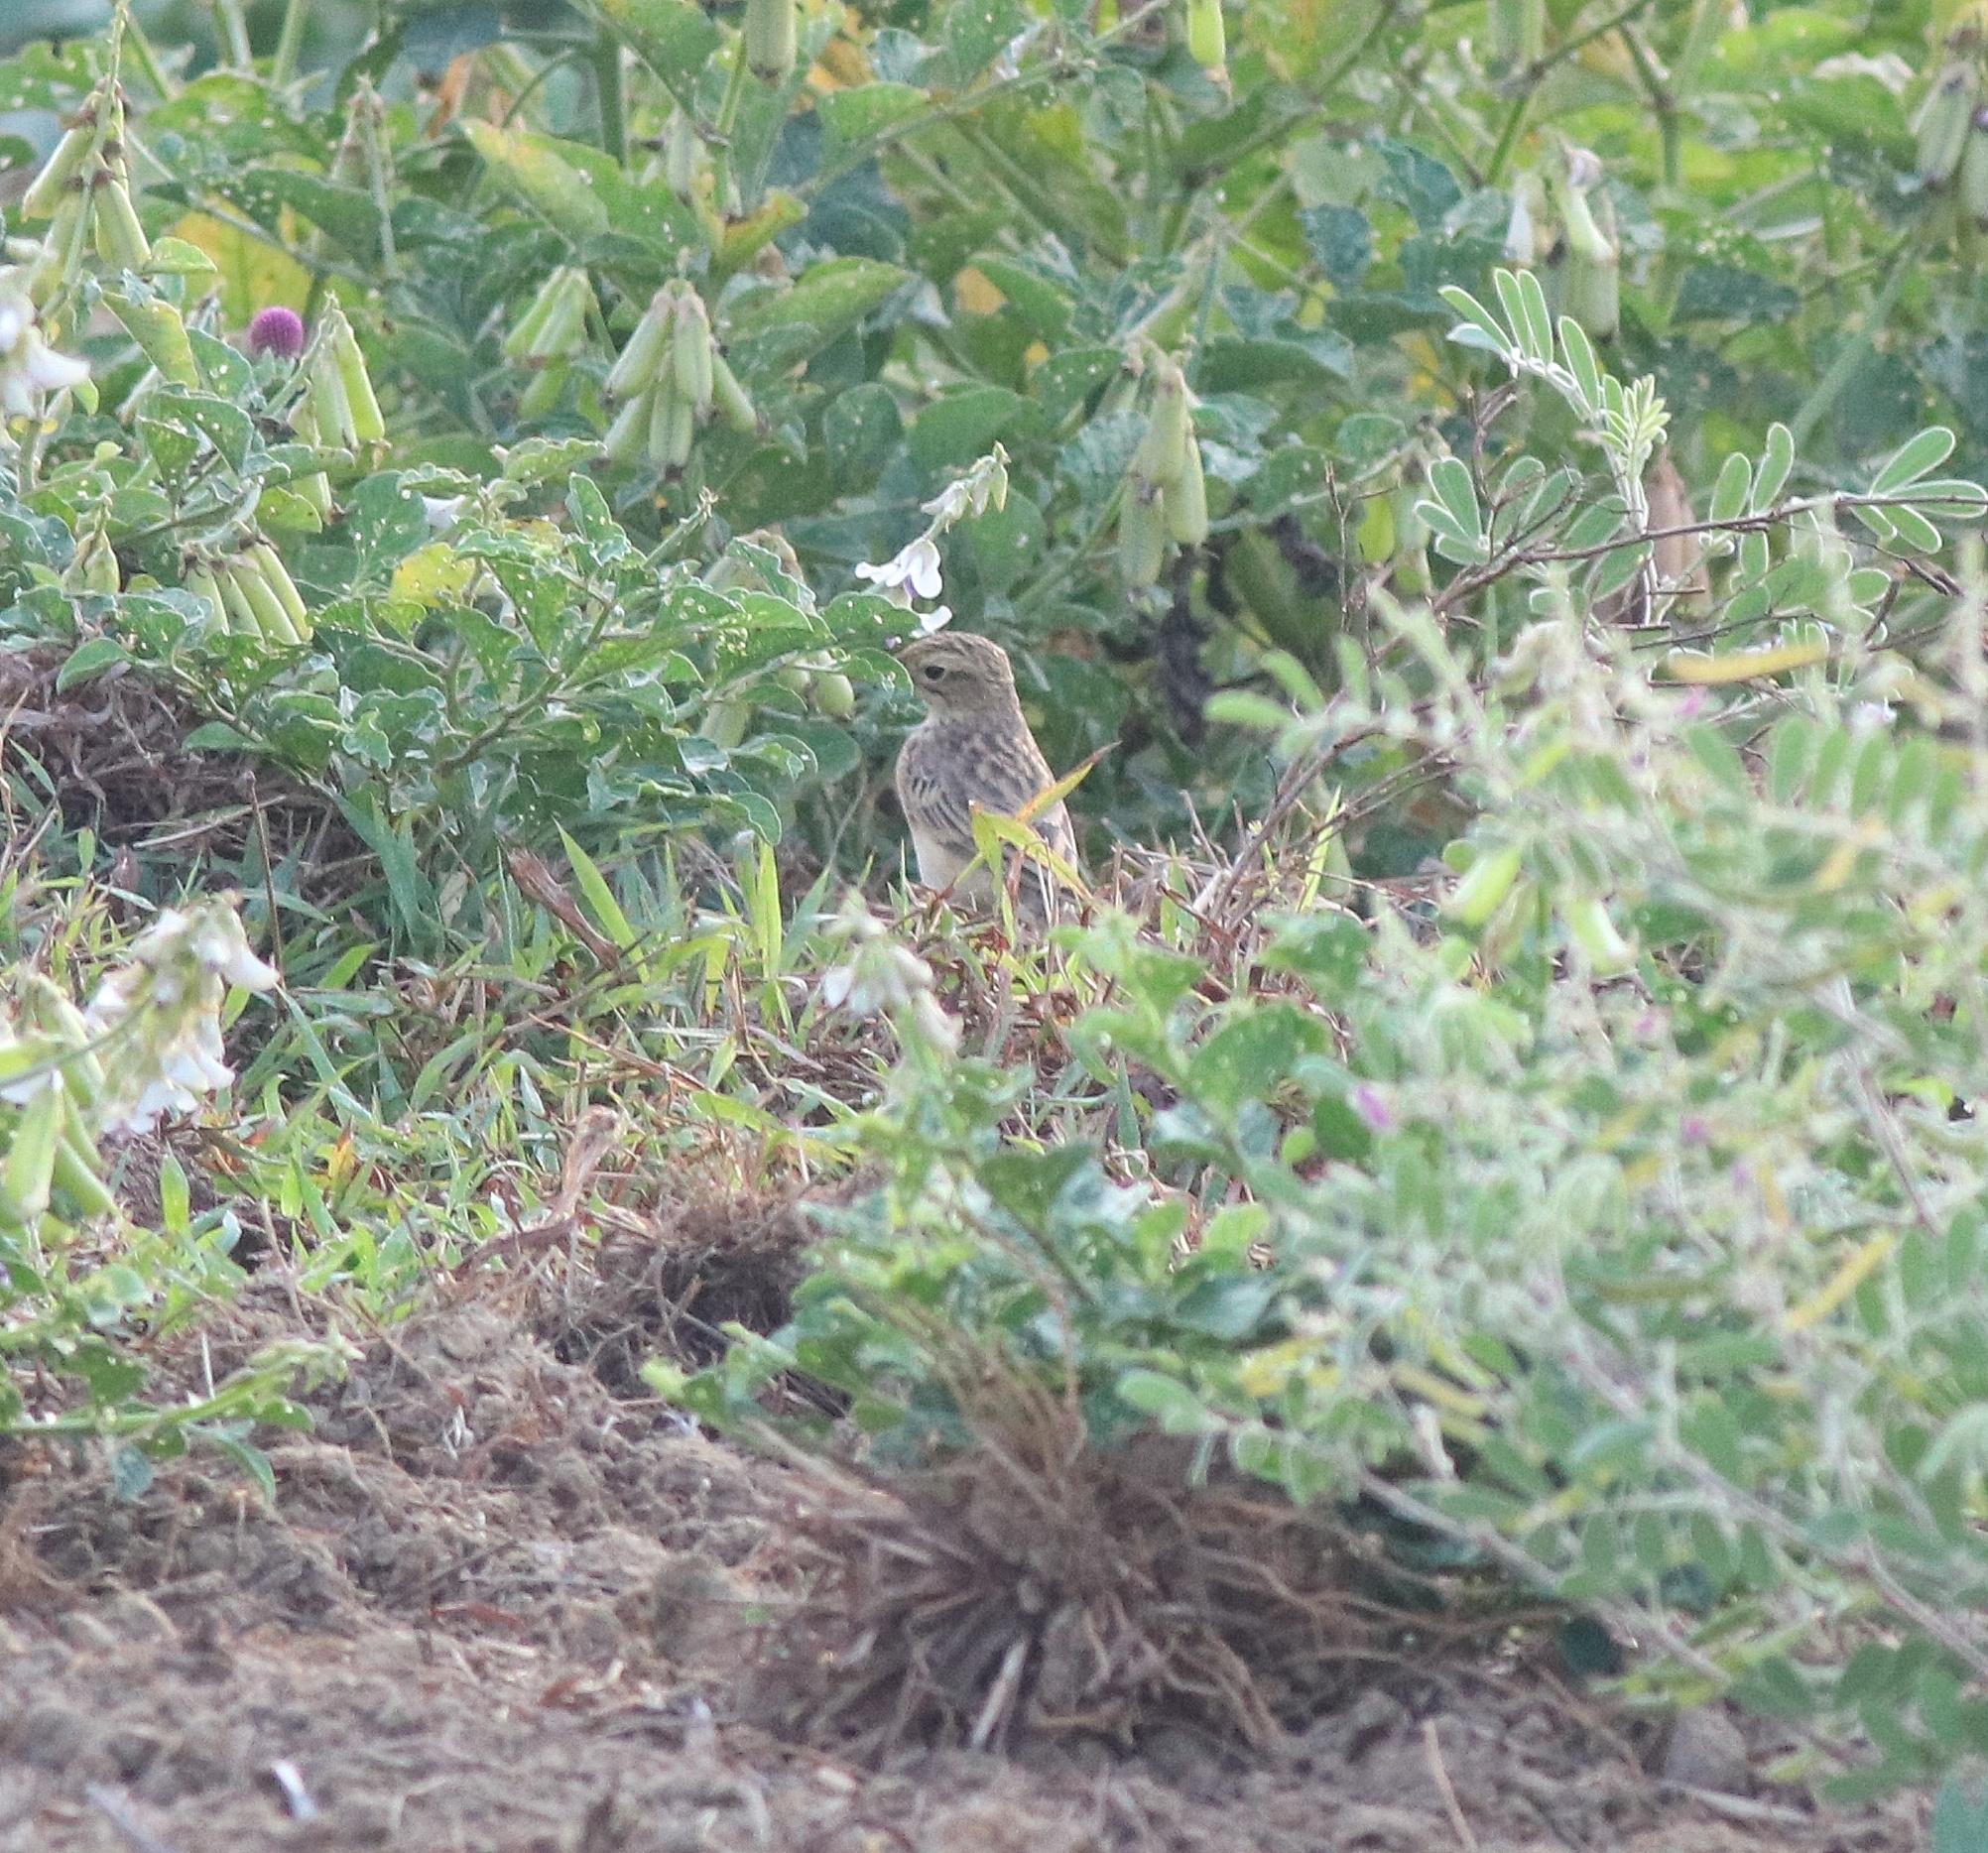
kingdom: Animalia
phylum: Chordata
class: Aves
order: Passeriformes
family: Motacillidae
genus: Anthus
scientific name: Anthus rufulus
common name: Paddyfield pipit
